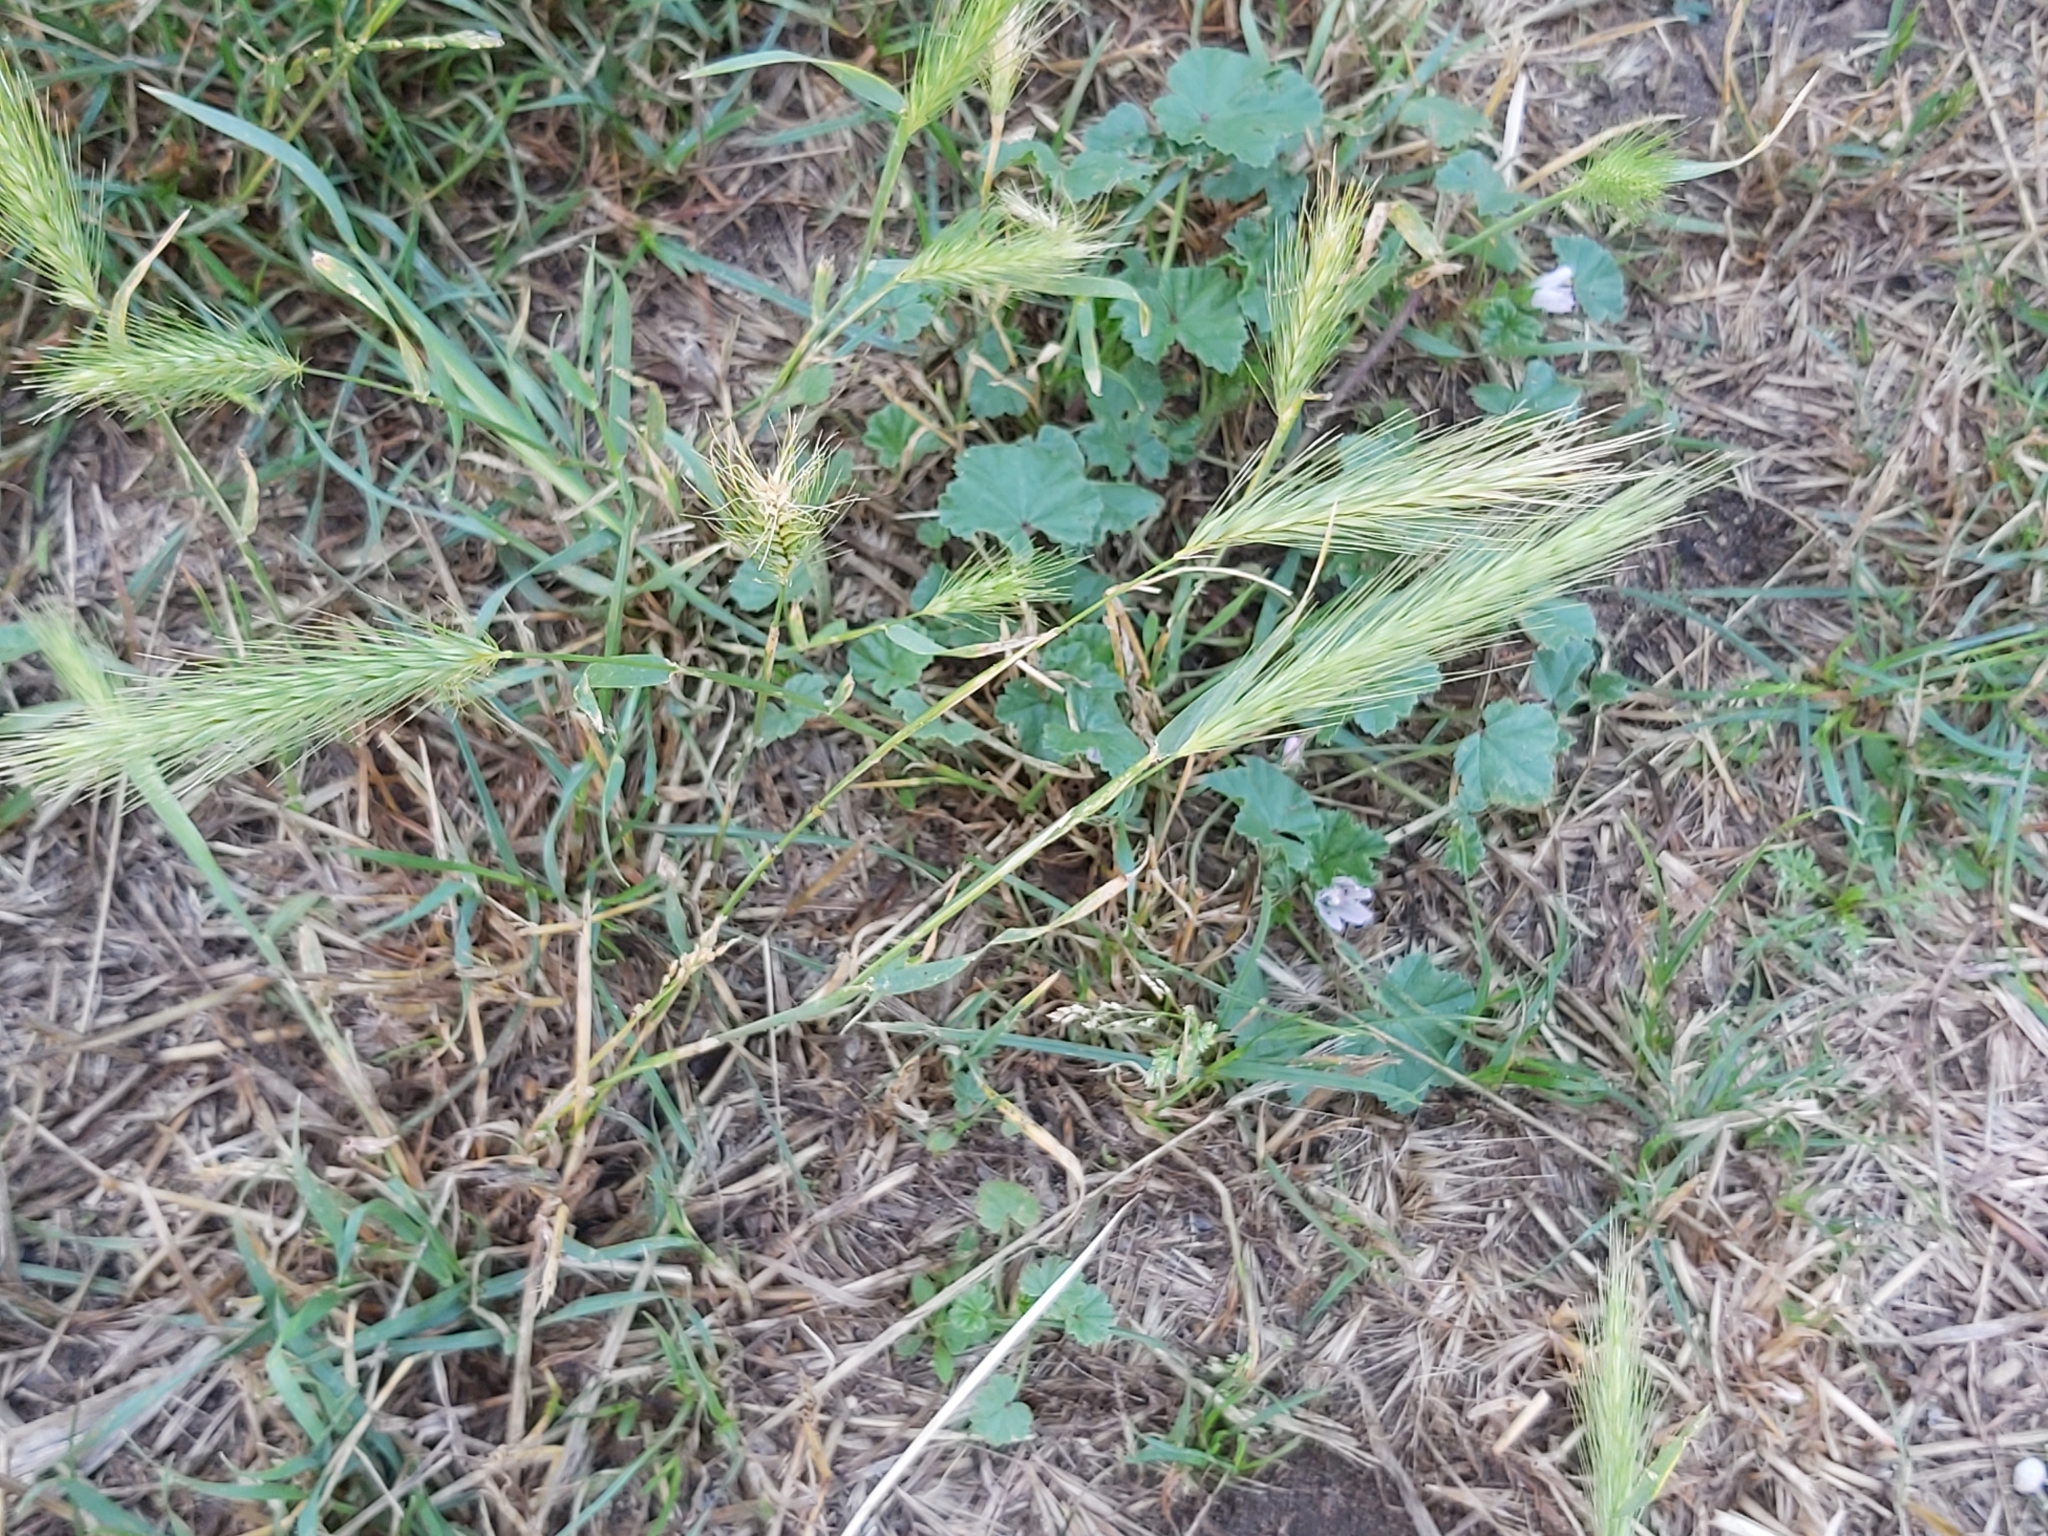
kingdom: Plantae
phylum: Tracheophyta
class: Liliopsida
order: Poales
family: Poaceae
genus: Hordeum
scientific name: Hordeum murinum
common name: Wall barley
